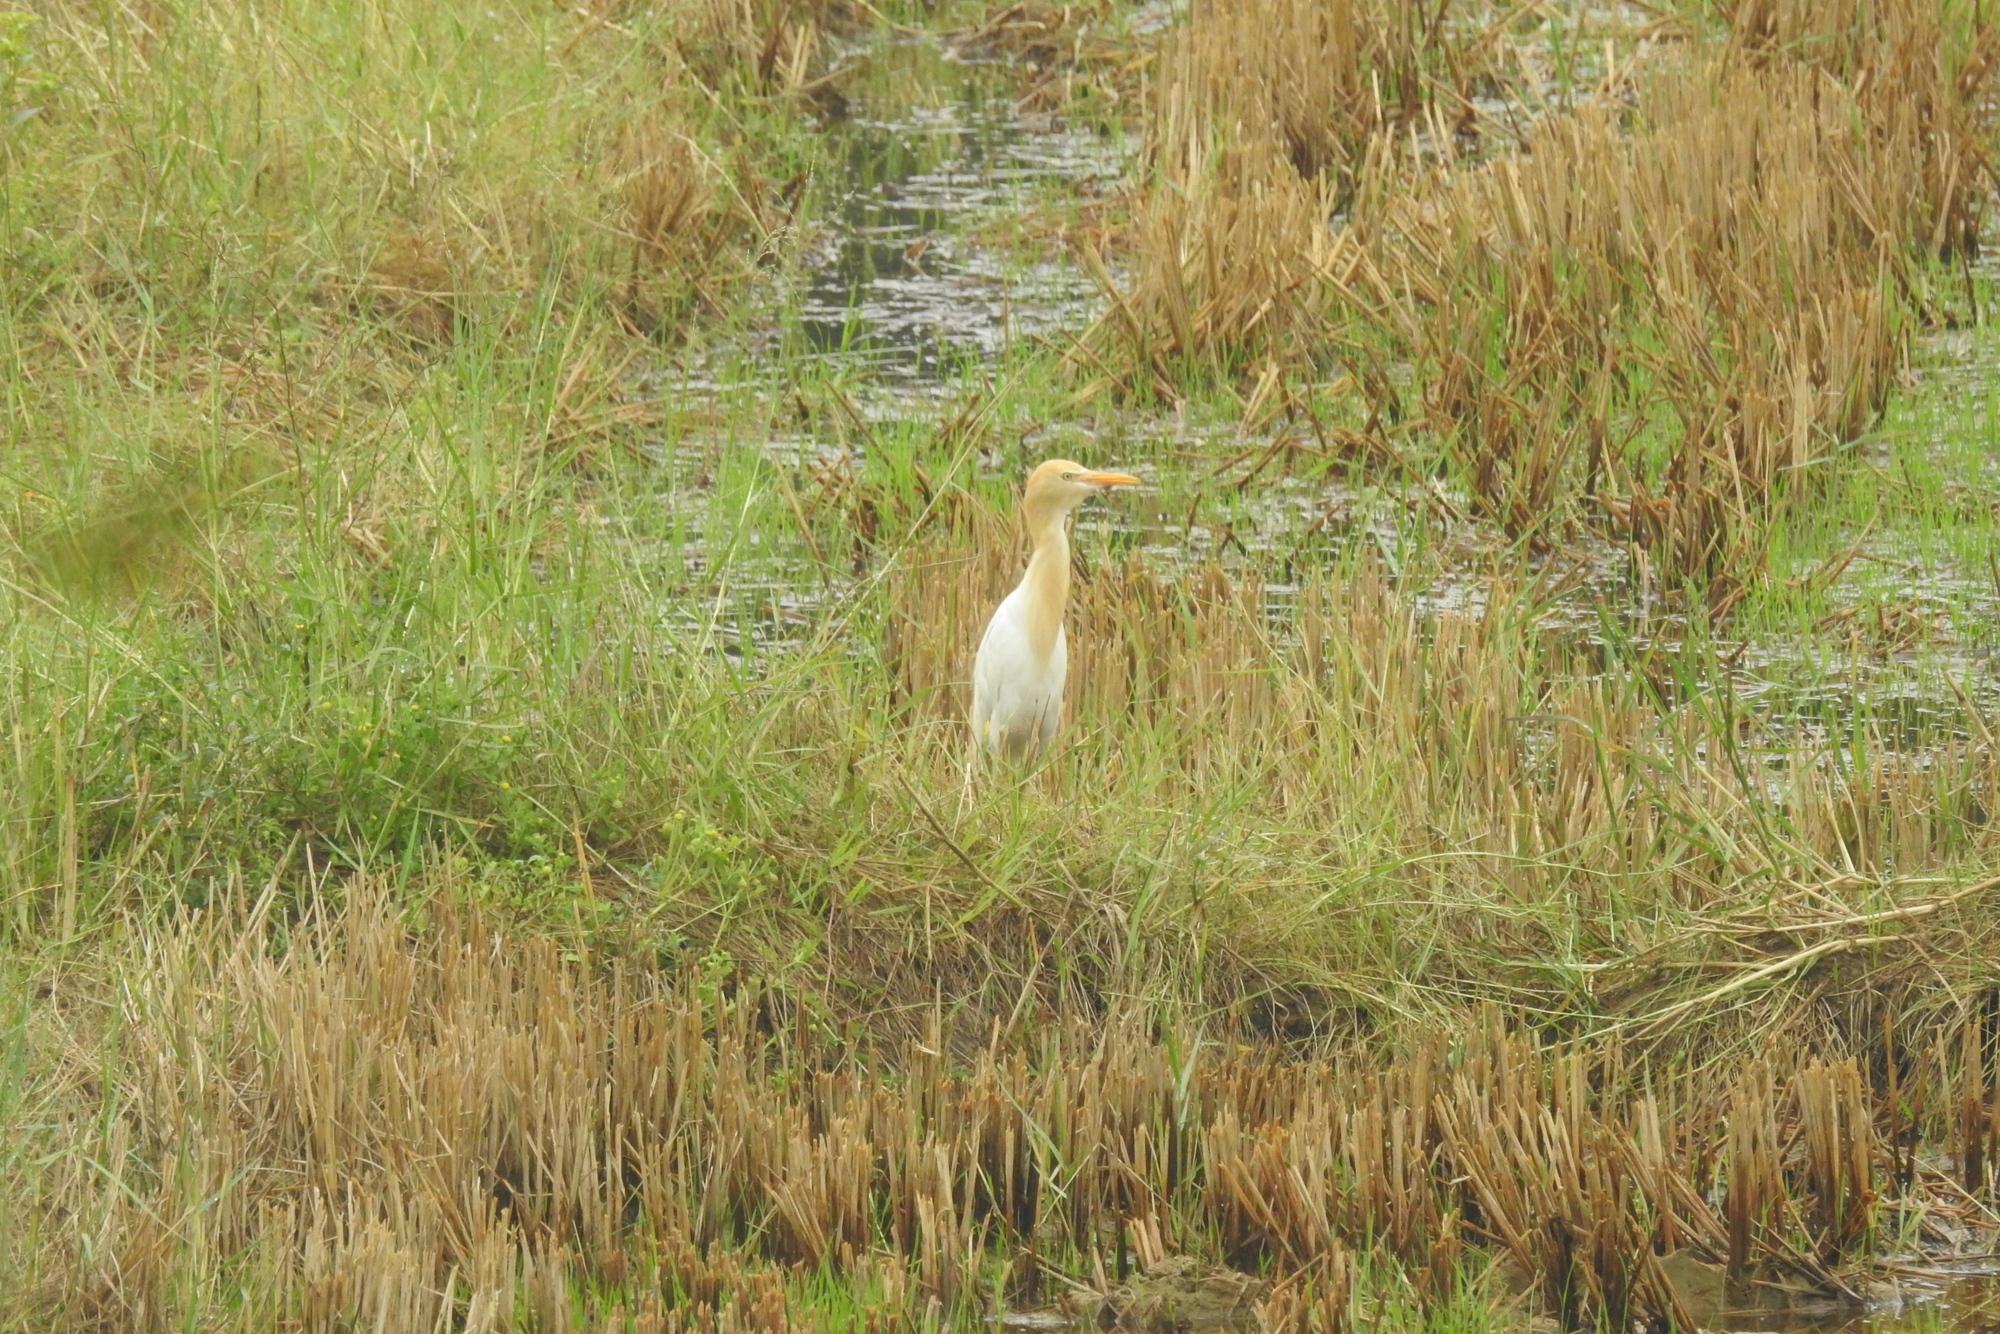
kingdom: Animalia
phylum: Chordata
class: Aves
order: Pelecaniformes
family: Ardeidae
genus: Bubulcus
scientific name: Bubulcus coromandus
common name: Eastern cattle egret
